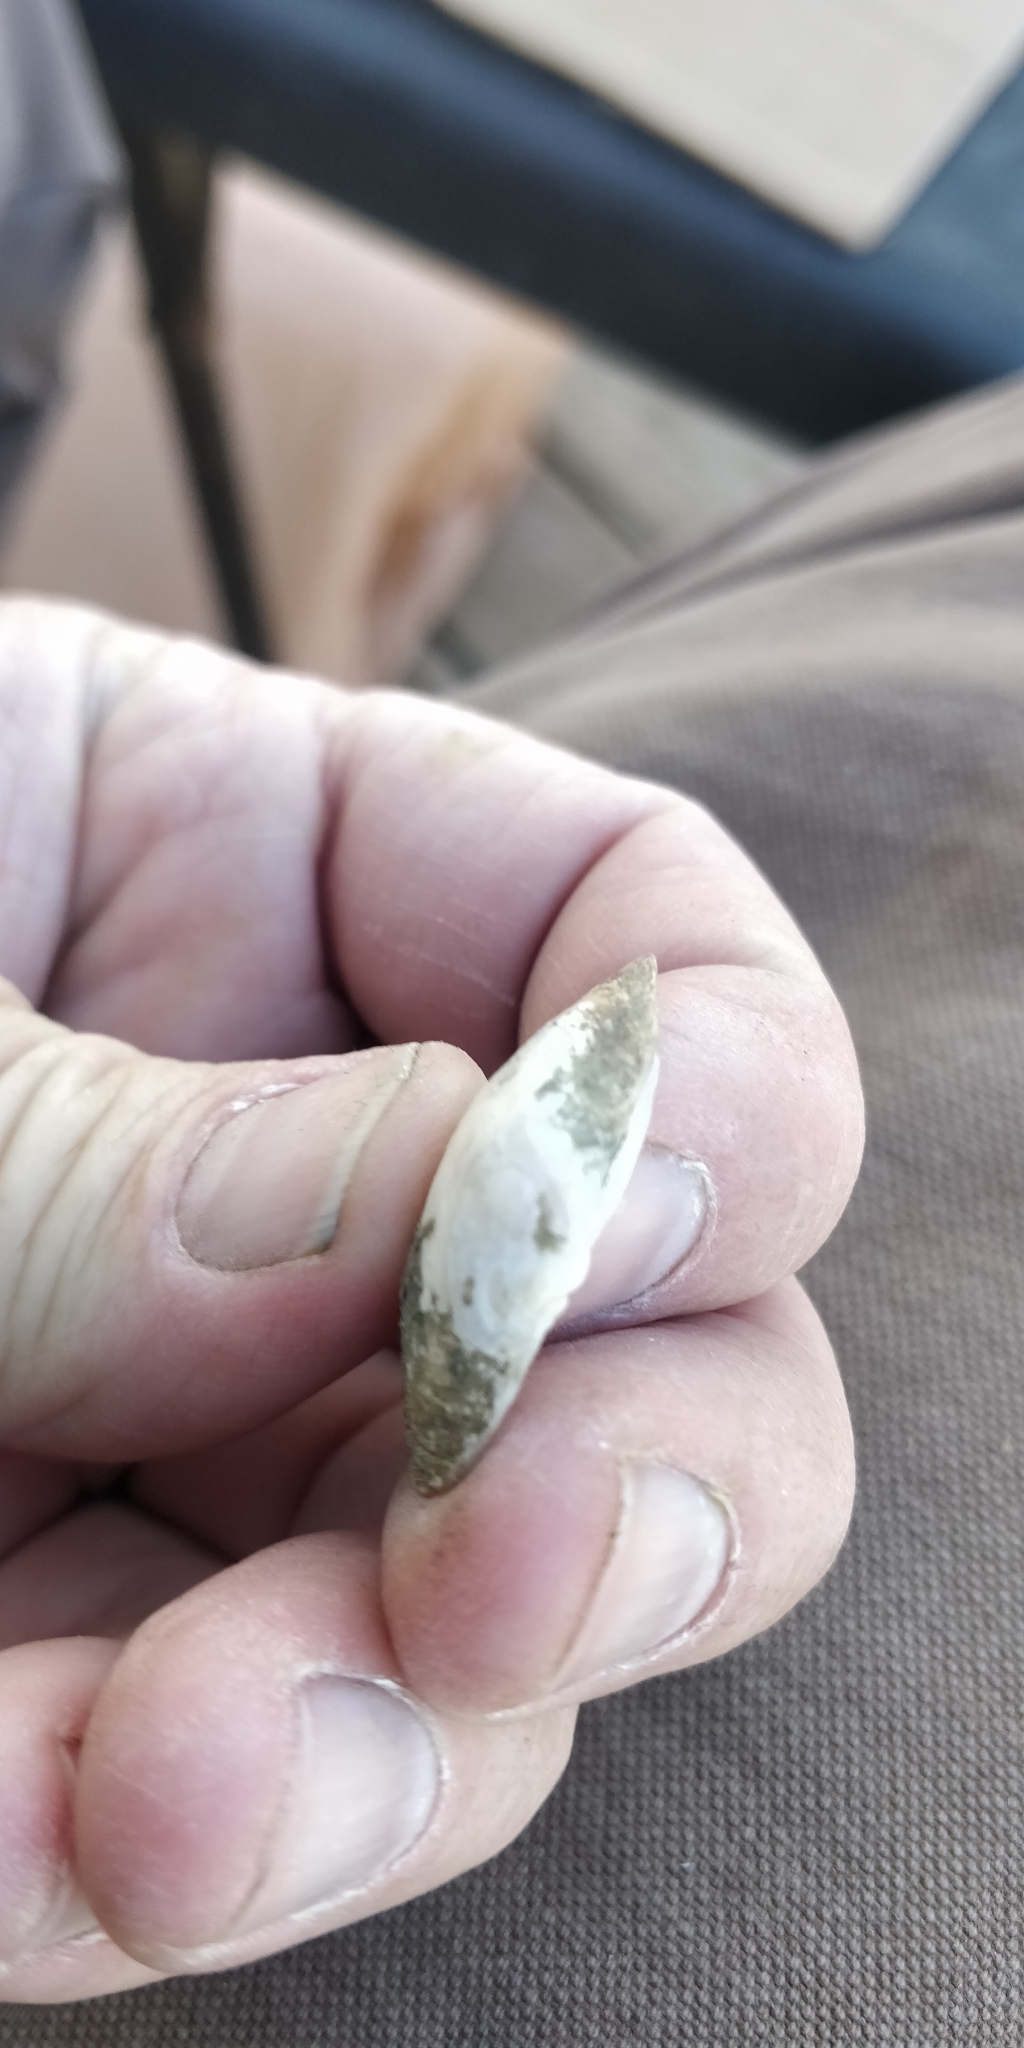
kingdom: Animalia
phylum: Mollusca
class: Bivalvia
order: Unionida
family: Unionidae
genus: Truncilla
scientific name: Truncilla donaciformis
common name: Fawnsfoot
